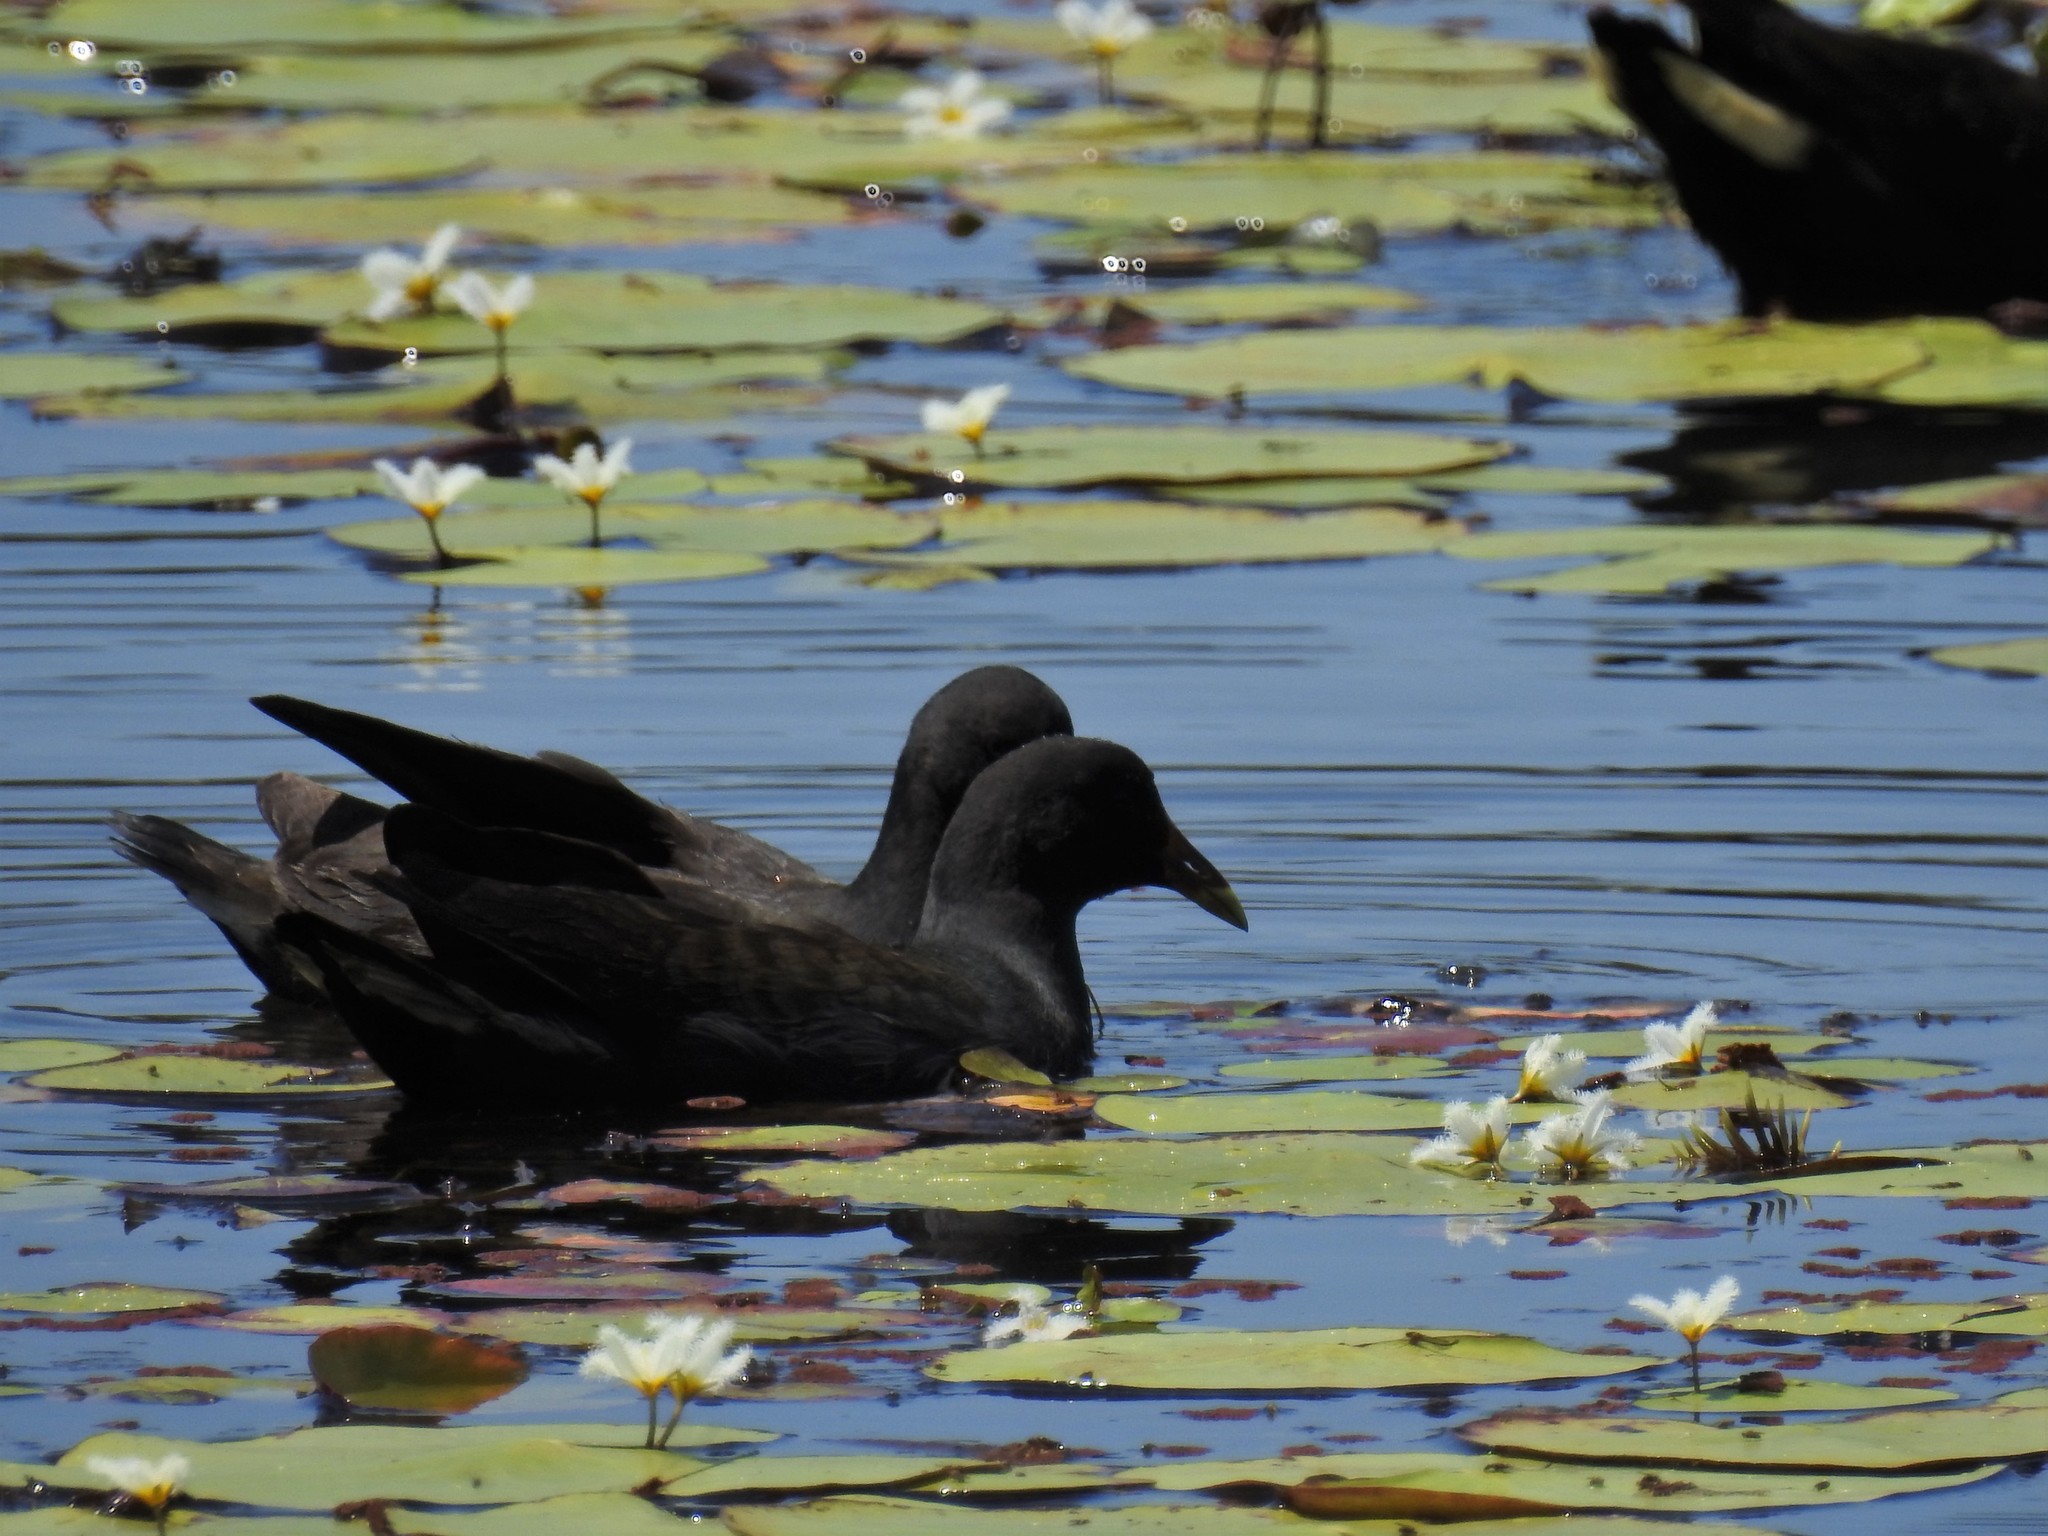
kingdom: Animalia
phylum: Chordata
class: Aves
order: Gruiformes
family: Rallidae
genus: Gallinula
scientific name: Gallinula tenebrosa
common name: Dusky moorhen
